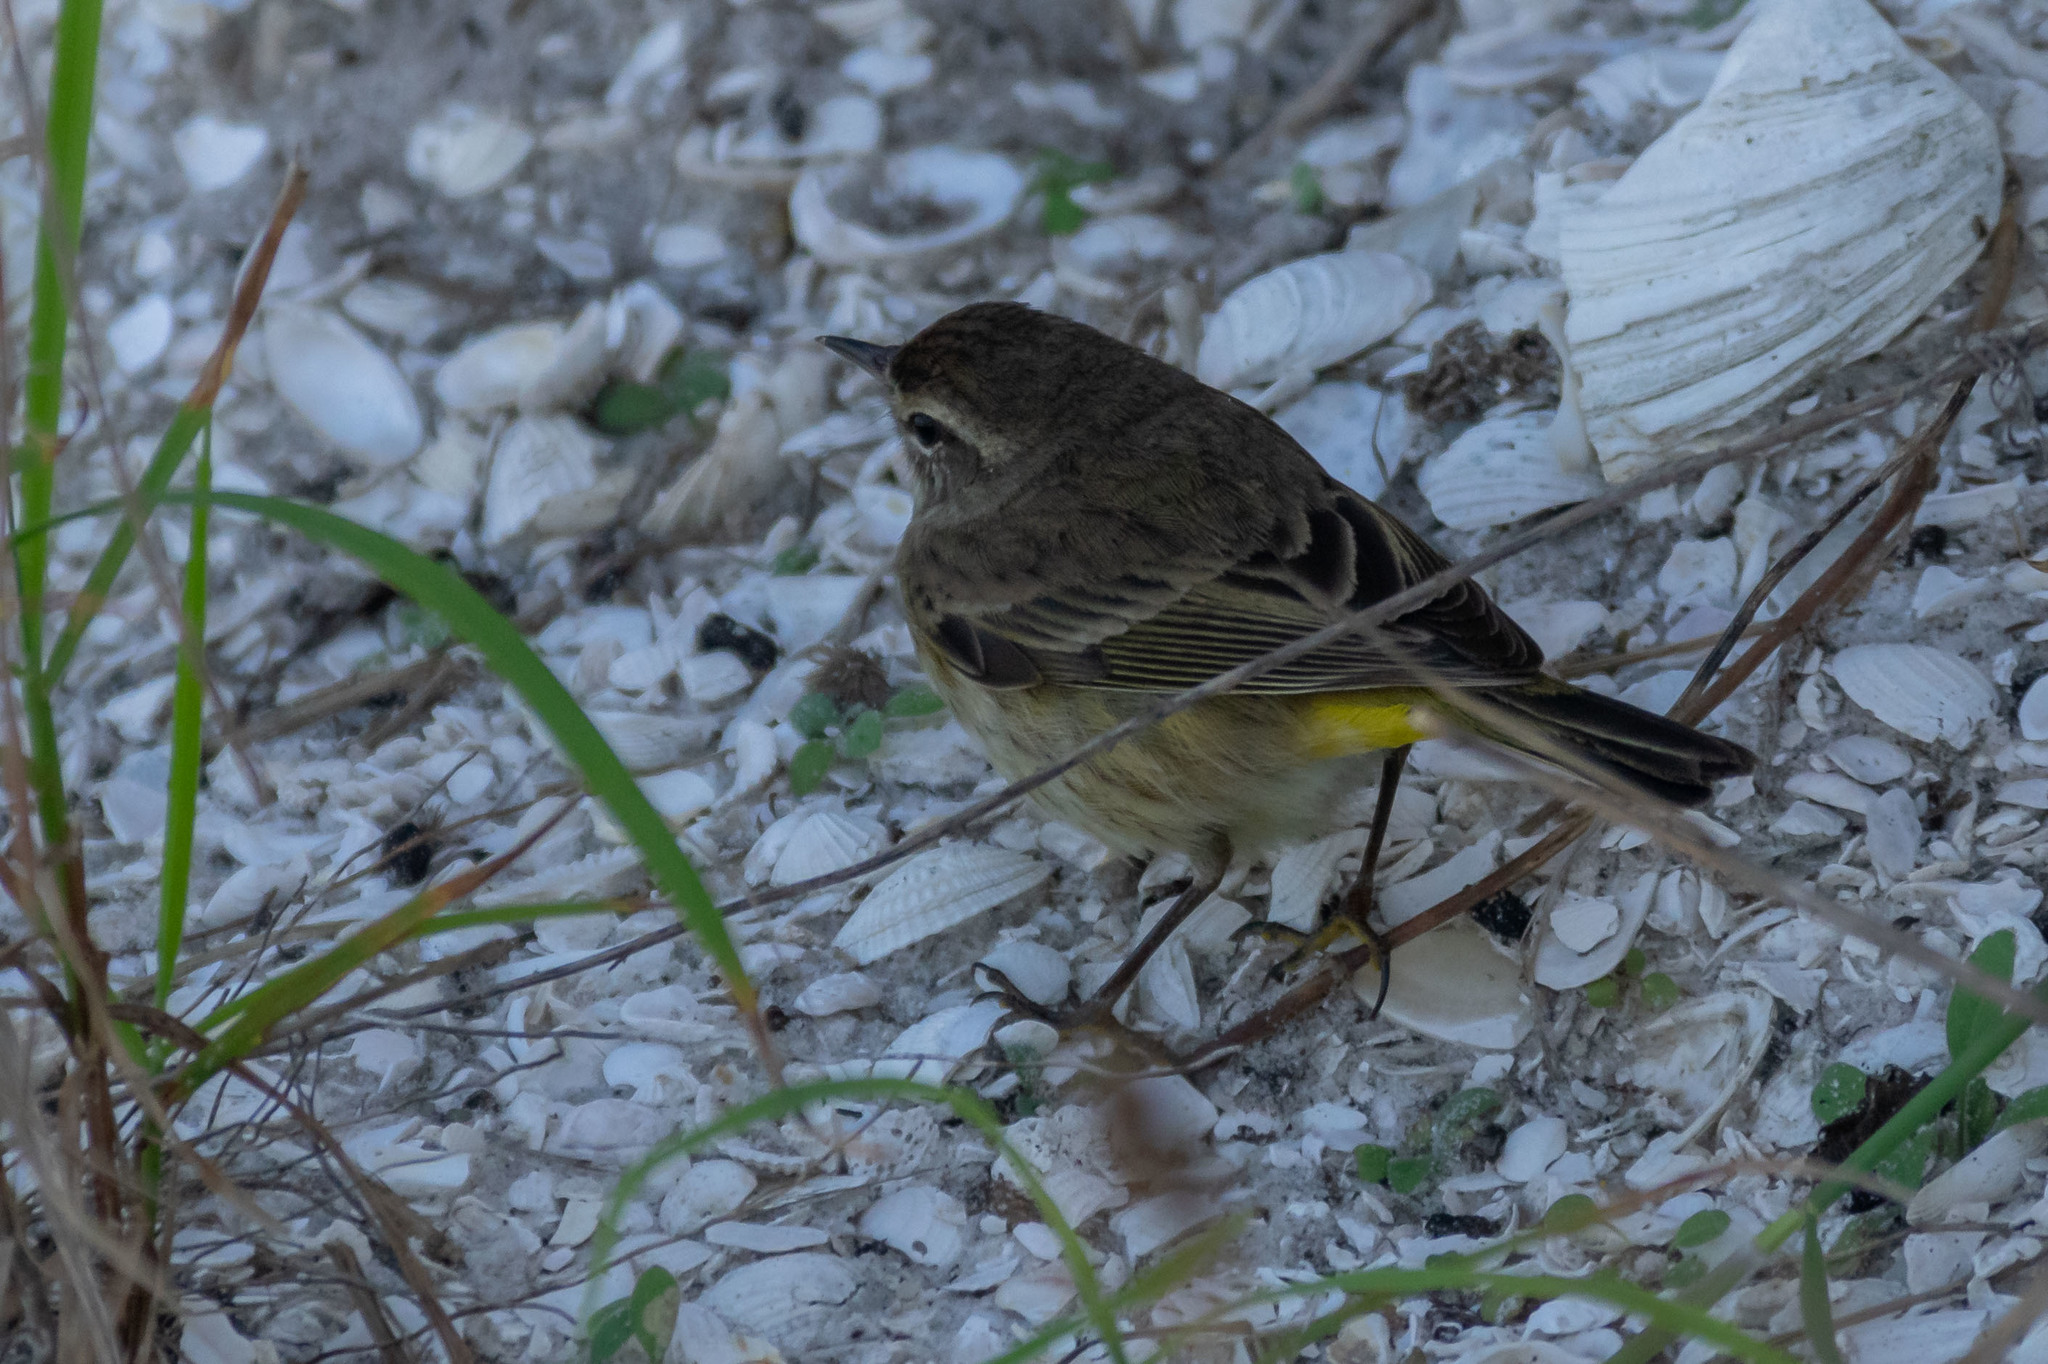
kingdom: Animalia
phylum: Chordata
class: Aves
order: Passeriformes
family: Parulidae
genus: Setophaga
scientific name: Setophaga palmarum
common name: Palm warbler
